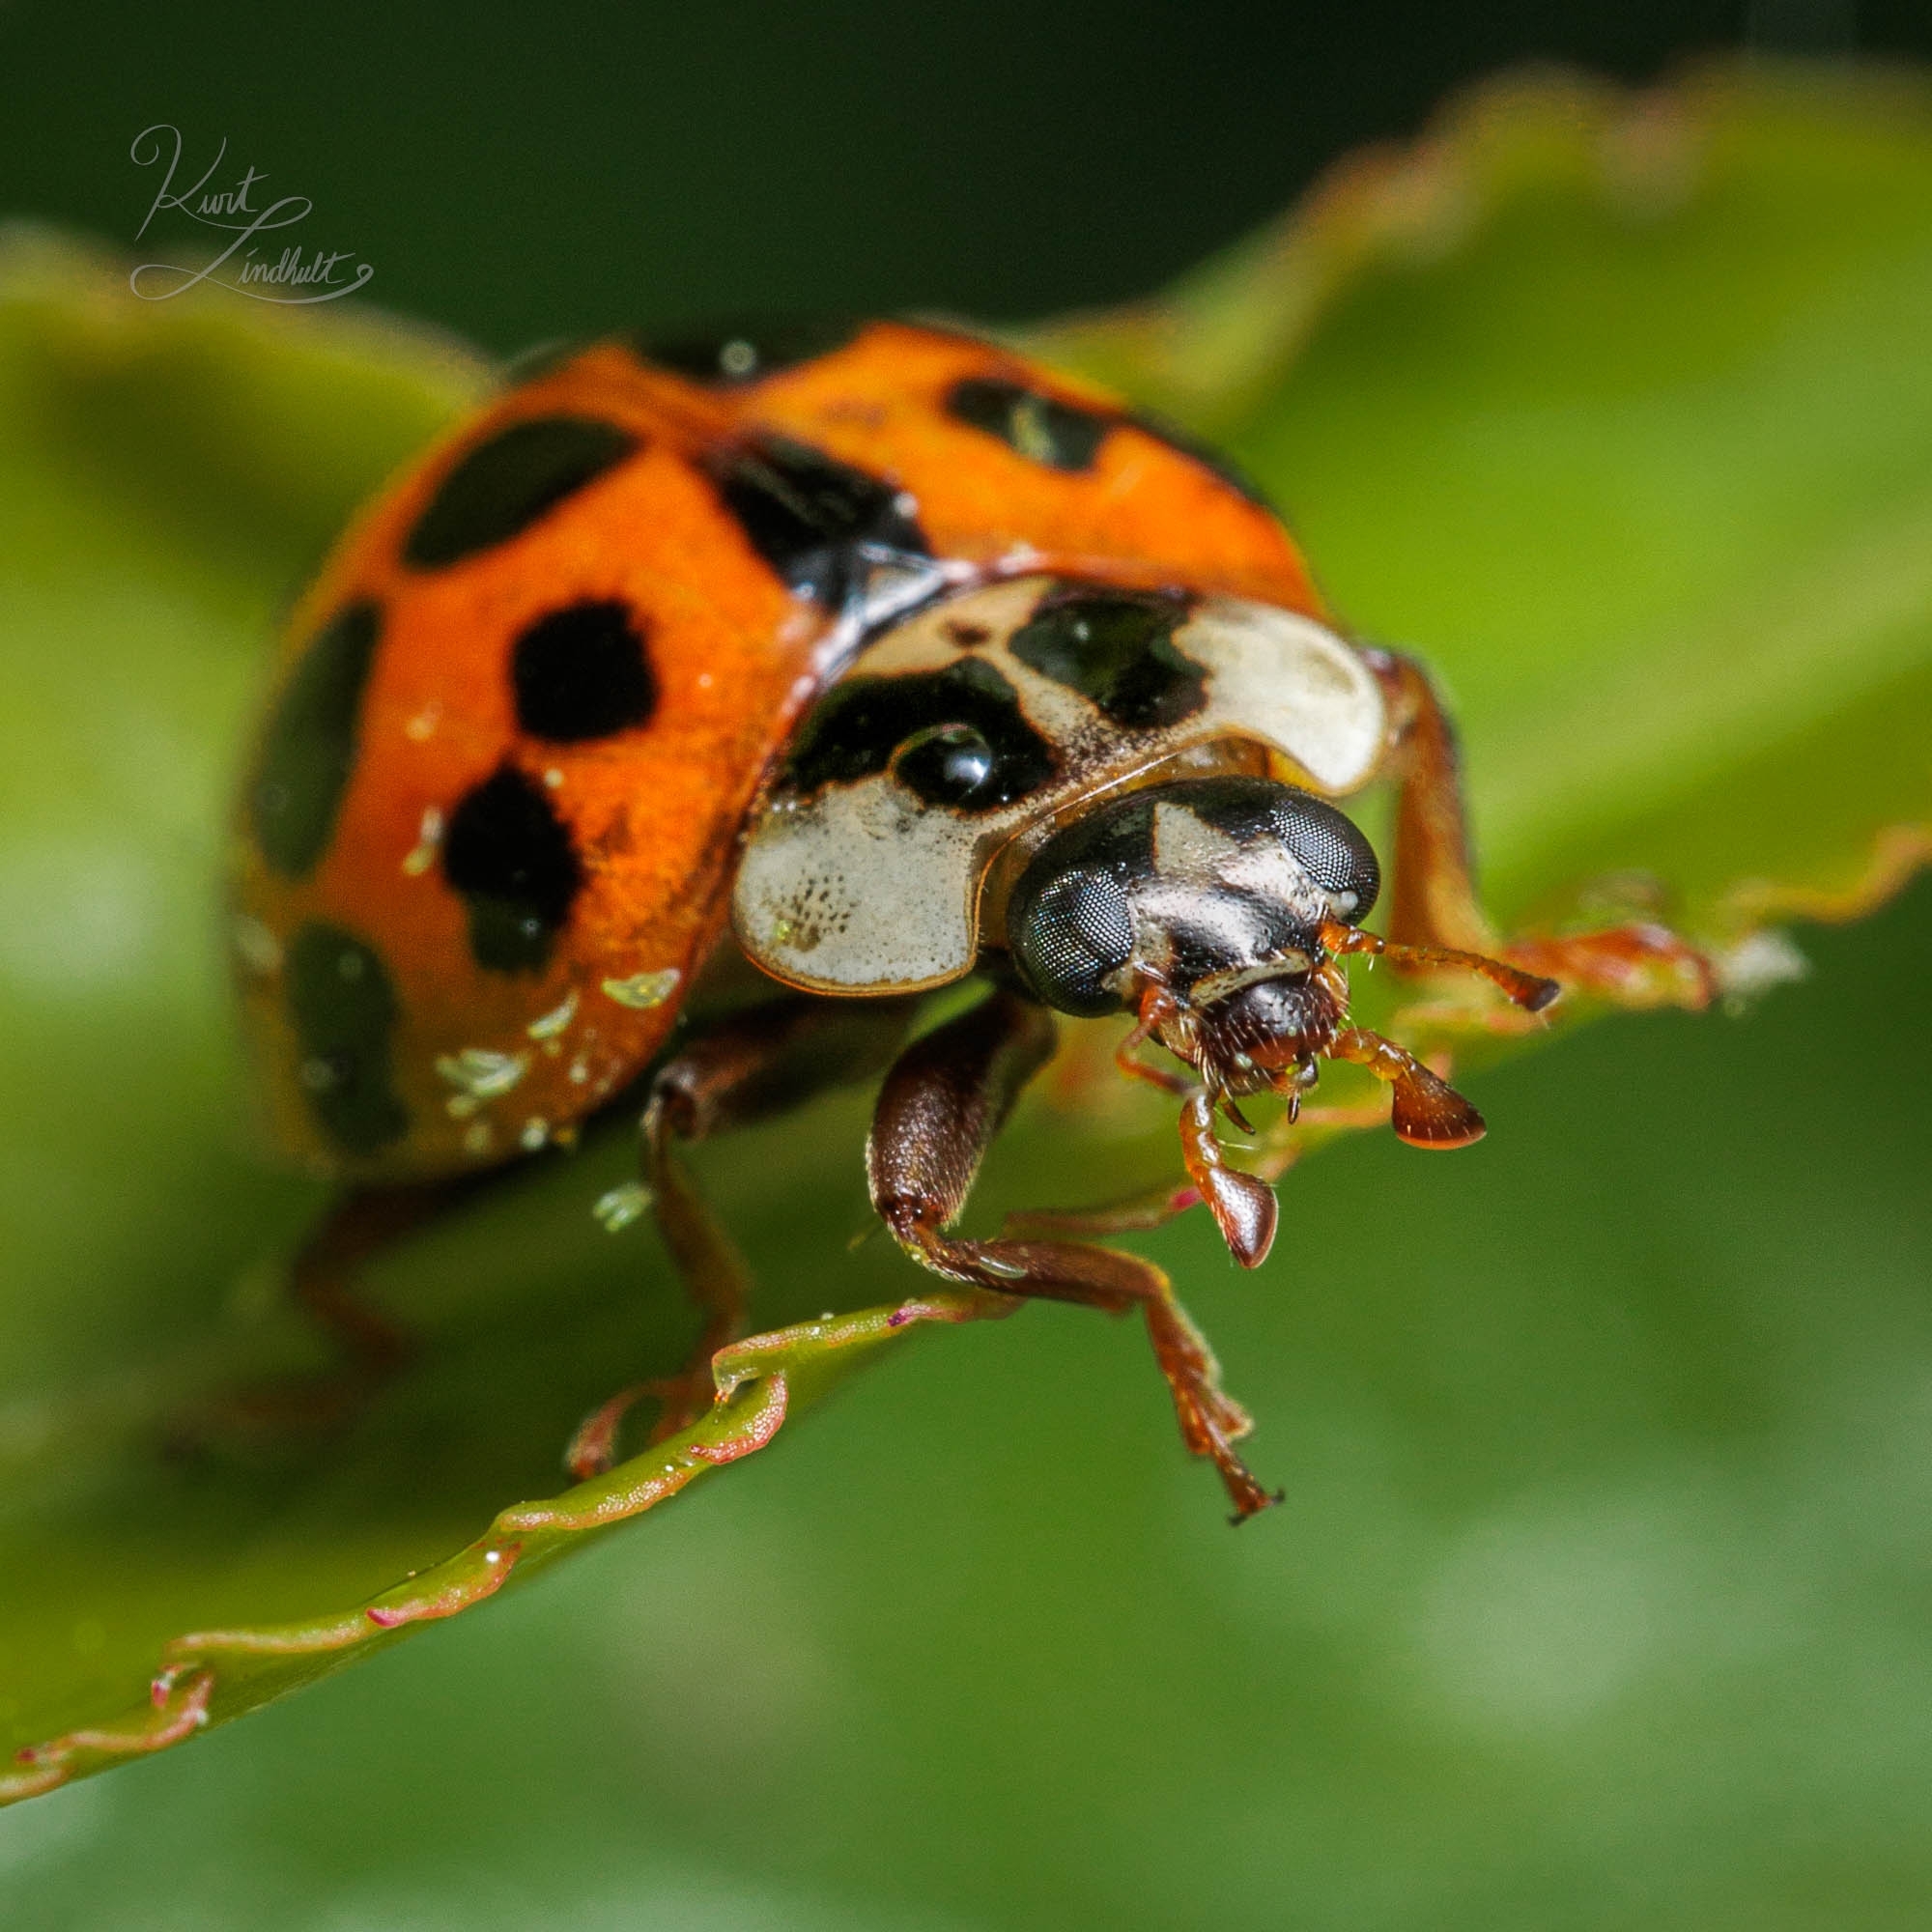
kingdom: Animalia
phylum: Arthropoda
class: Insecta
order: Coleoptera
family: Coccinellidae
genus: Harmonia
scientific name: Harmonia axyridis
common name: Harlequin ladybird
